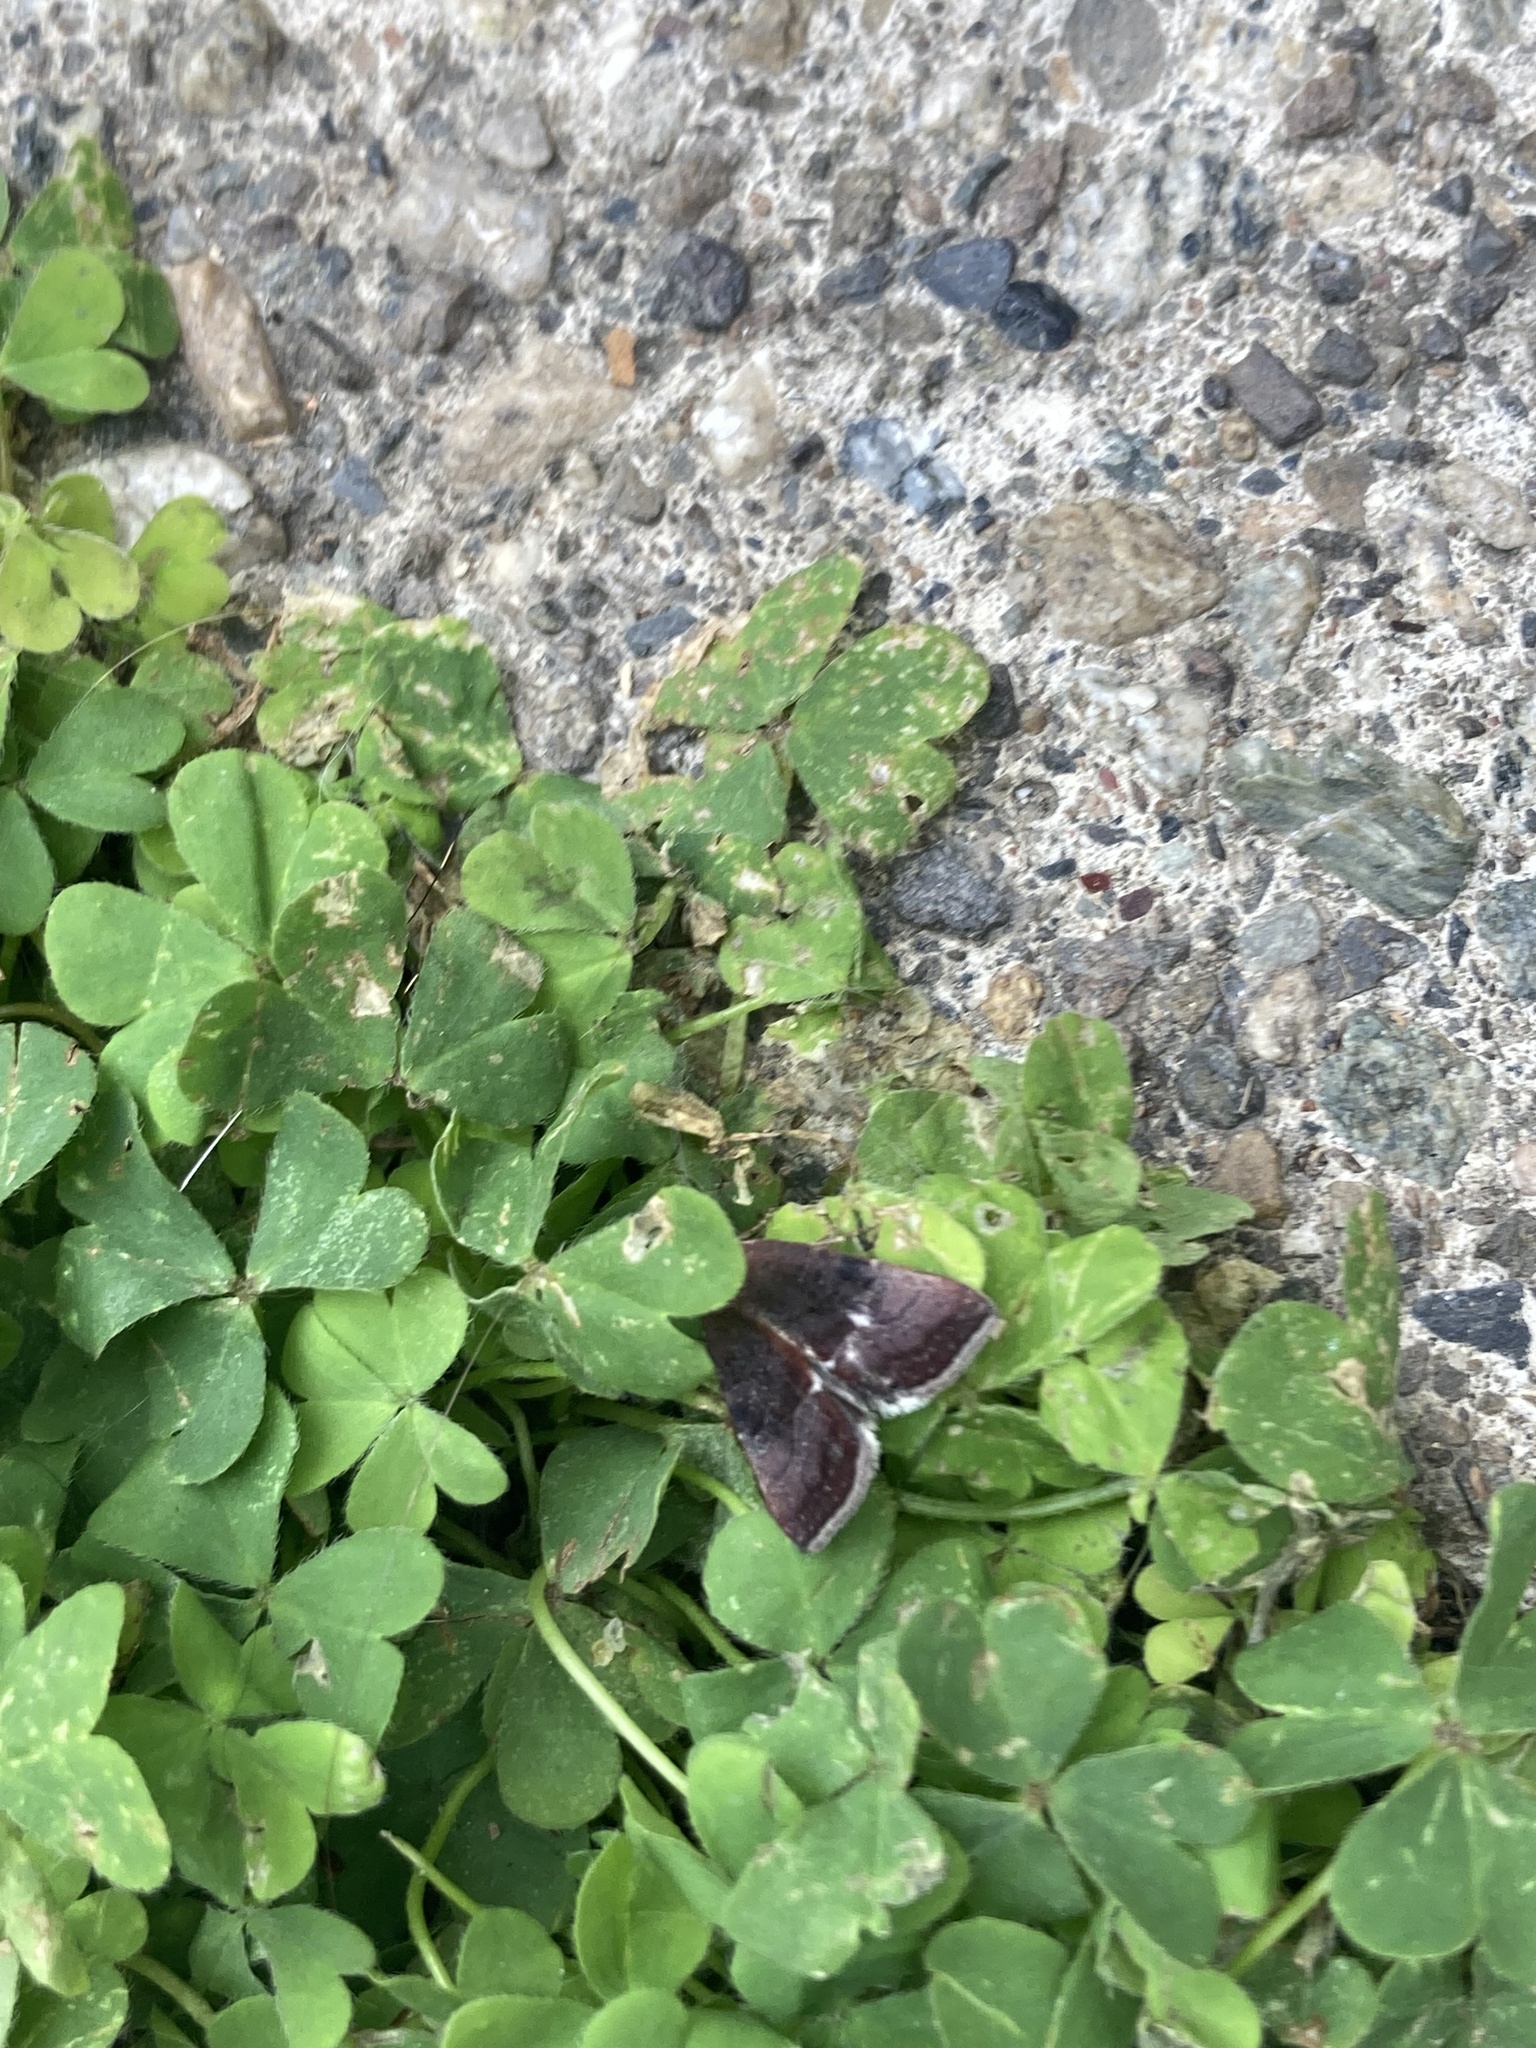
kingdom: Animalia
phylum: Arthropoda
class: Insecta
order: Lepidoptera
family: Noctuidae
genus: Galgula
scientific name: Galgula partita
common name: Wedgeling
